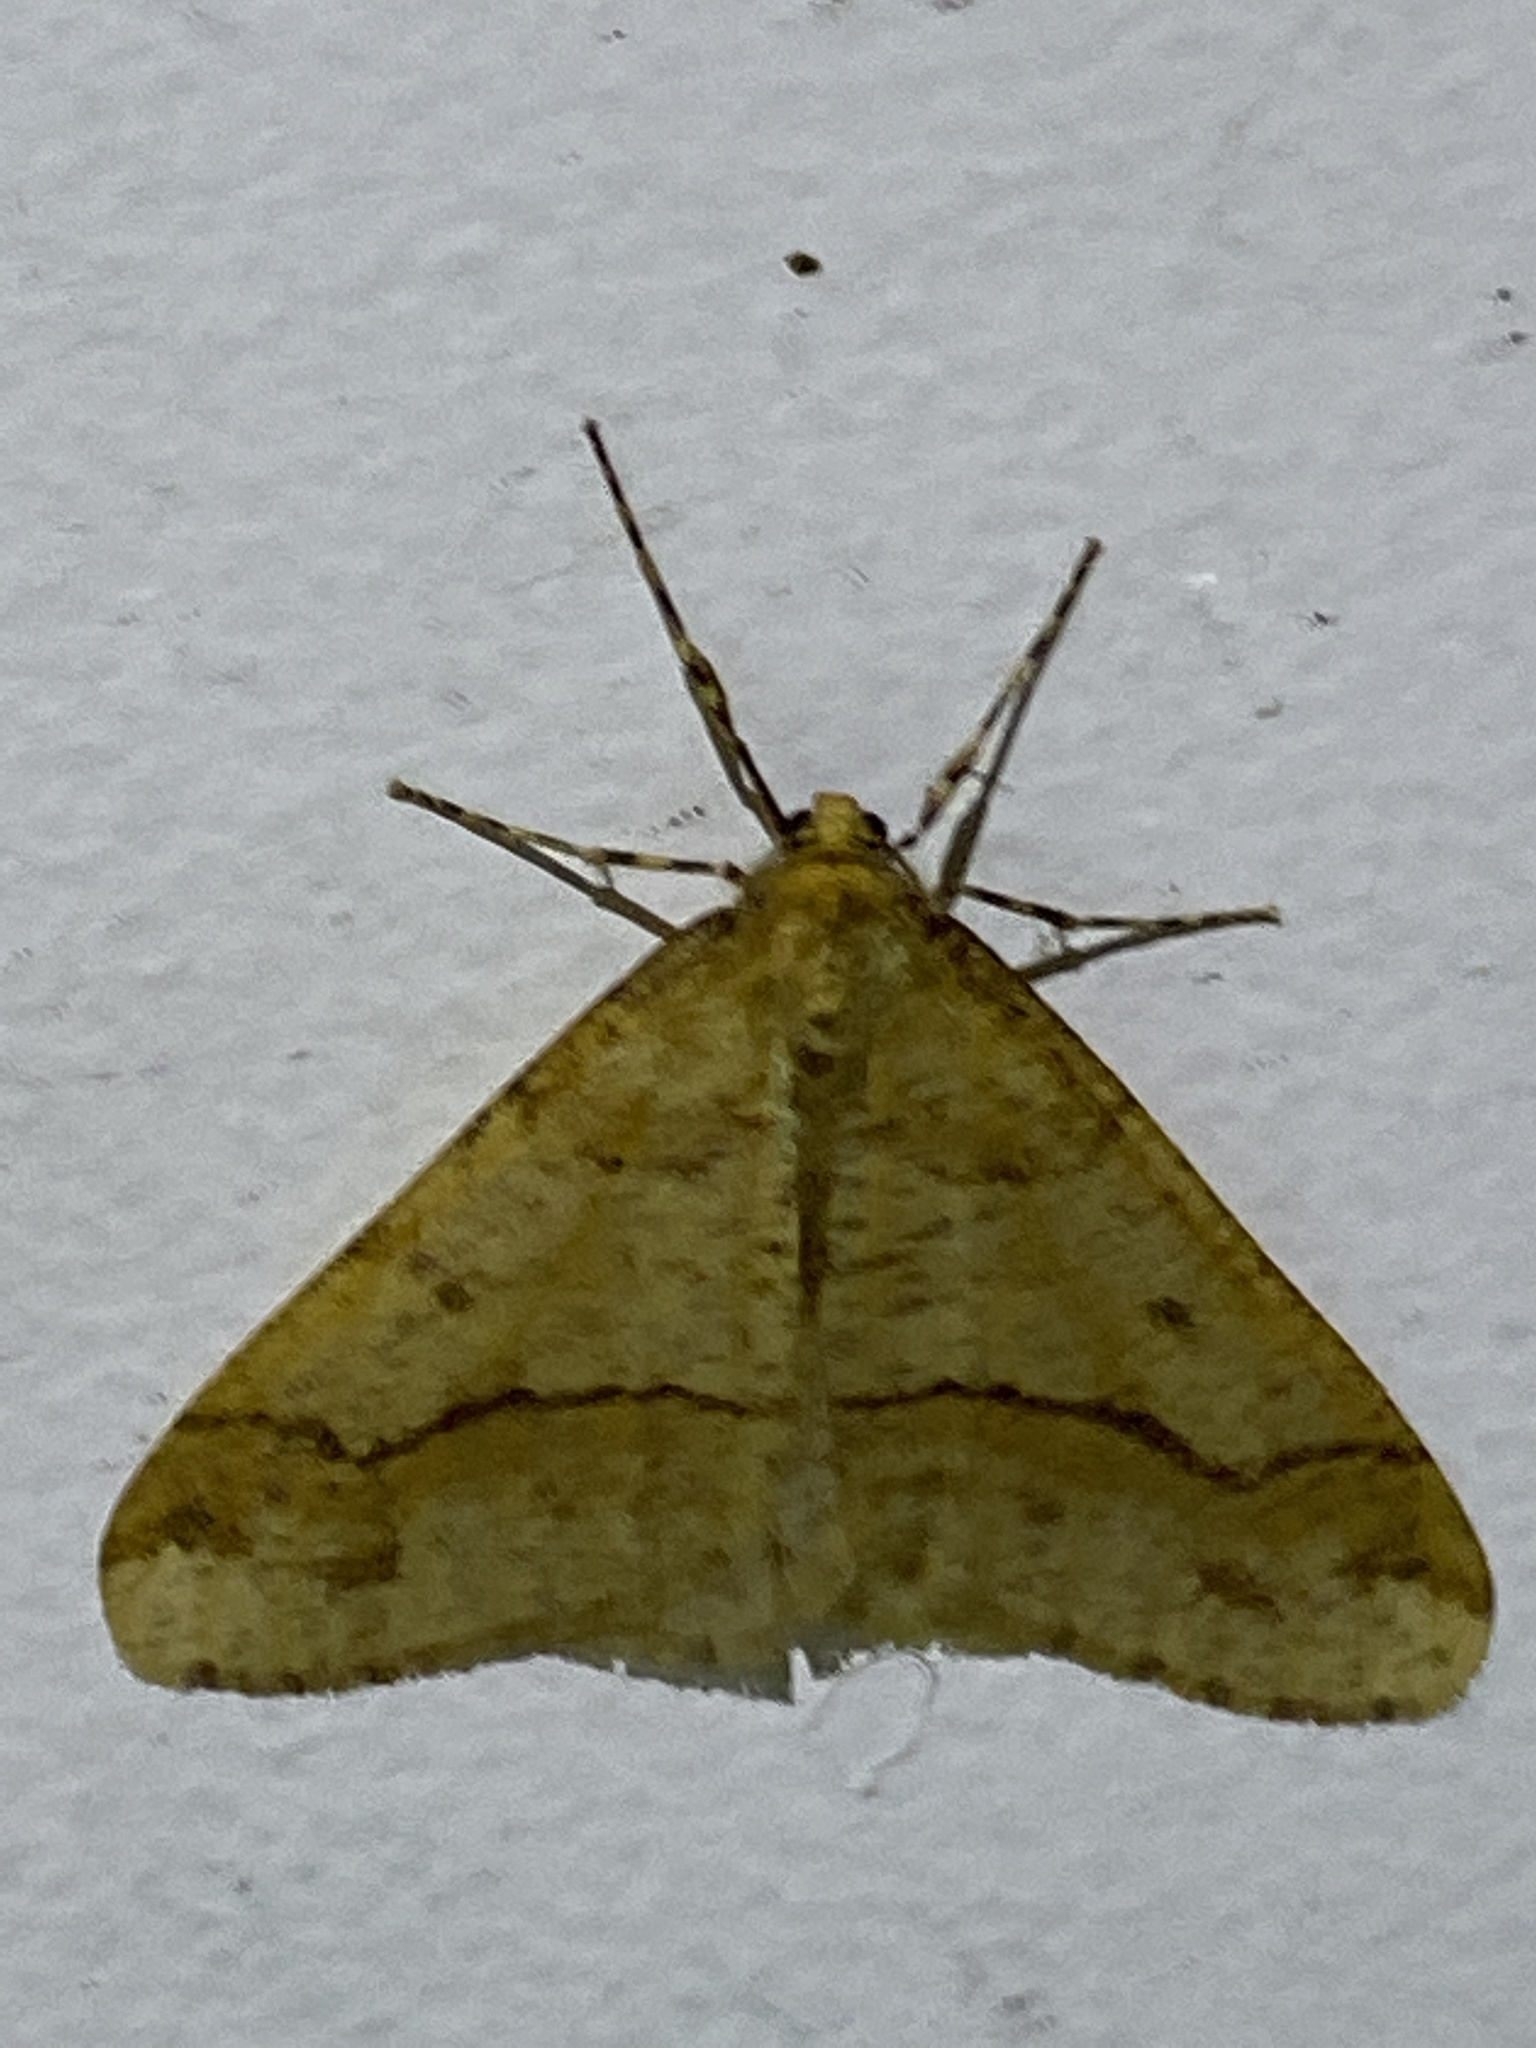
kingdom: Animalia
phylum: Arthropoda
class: Insecta
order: Lepidoptera
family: Geometridae
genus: Erannis
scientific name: Erannis tiliaria
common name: Linden looper
